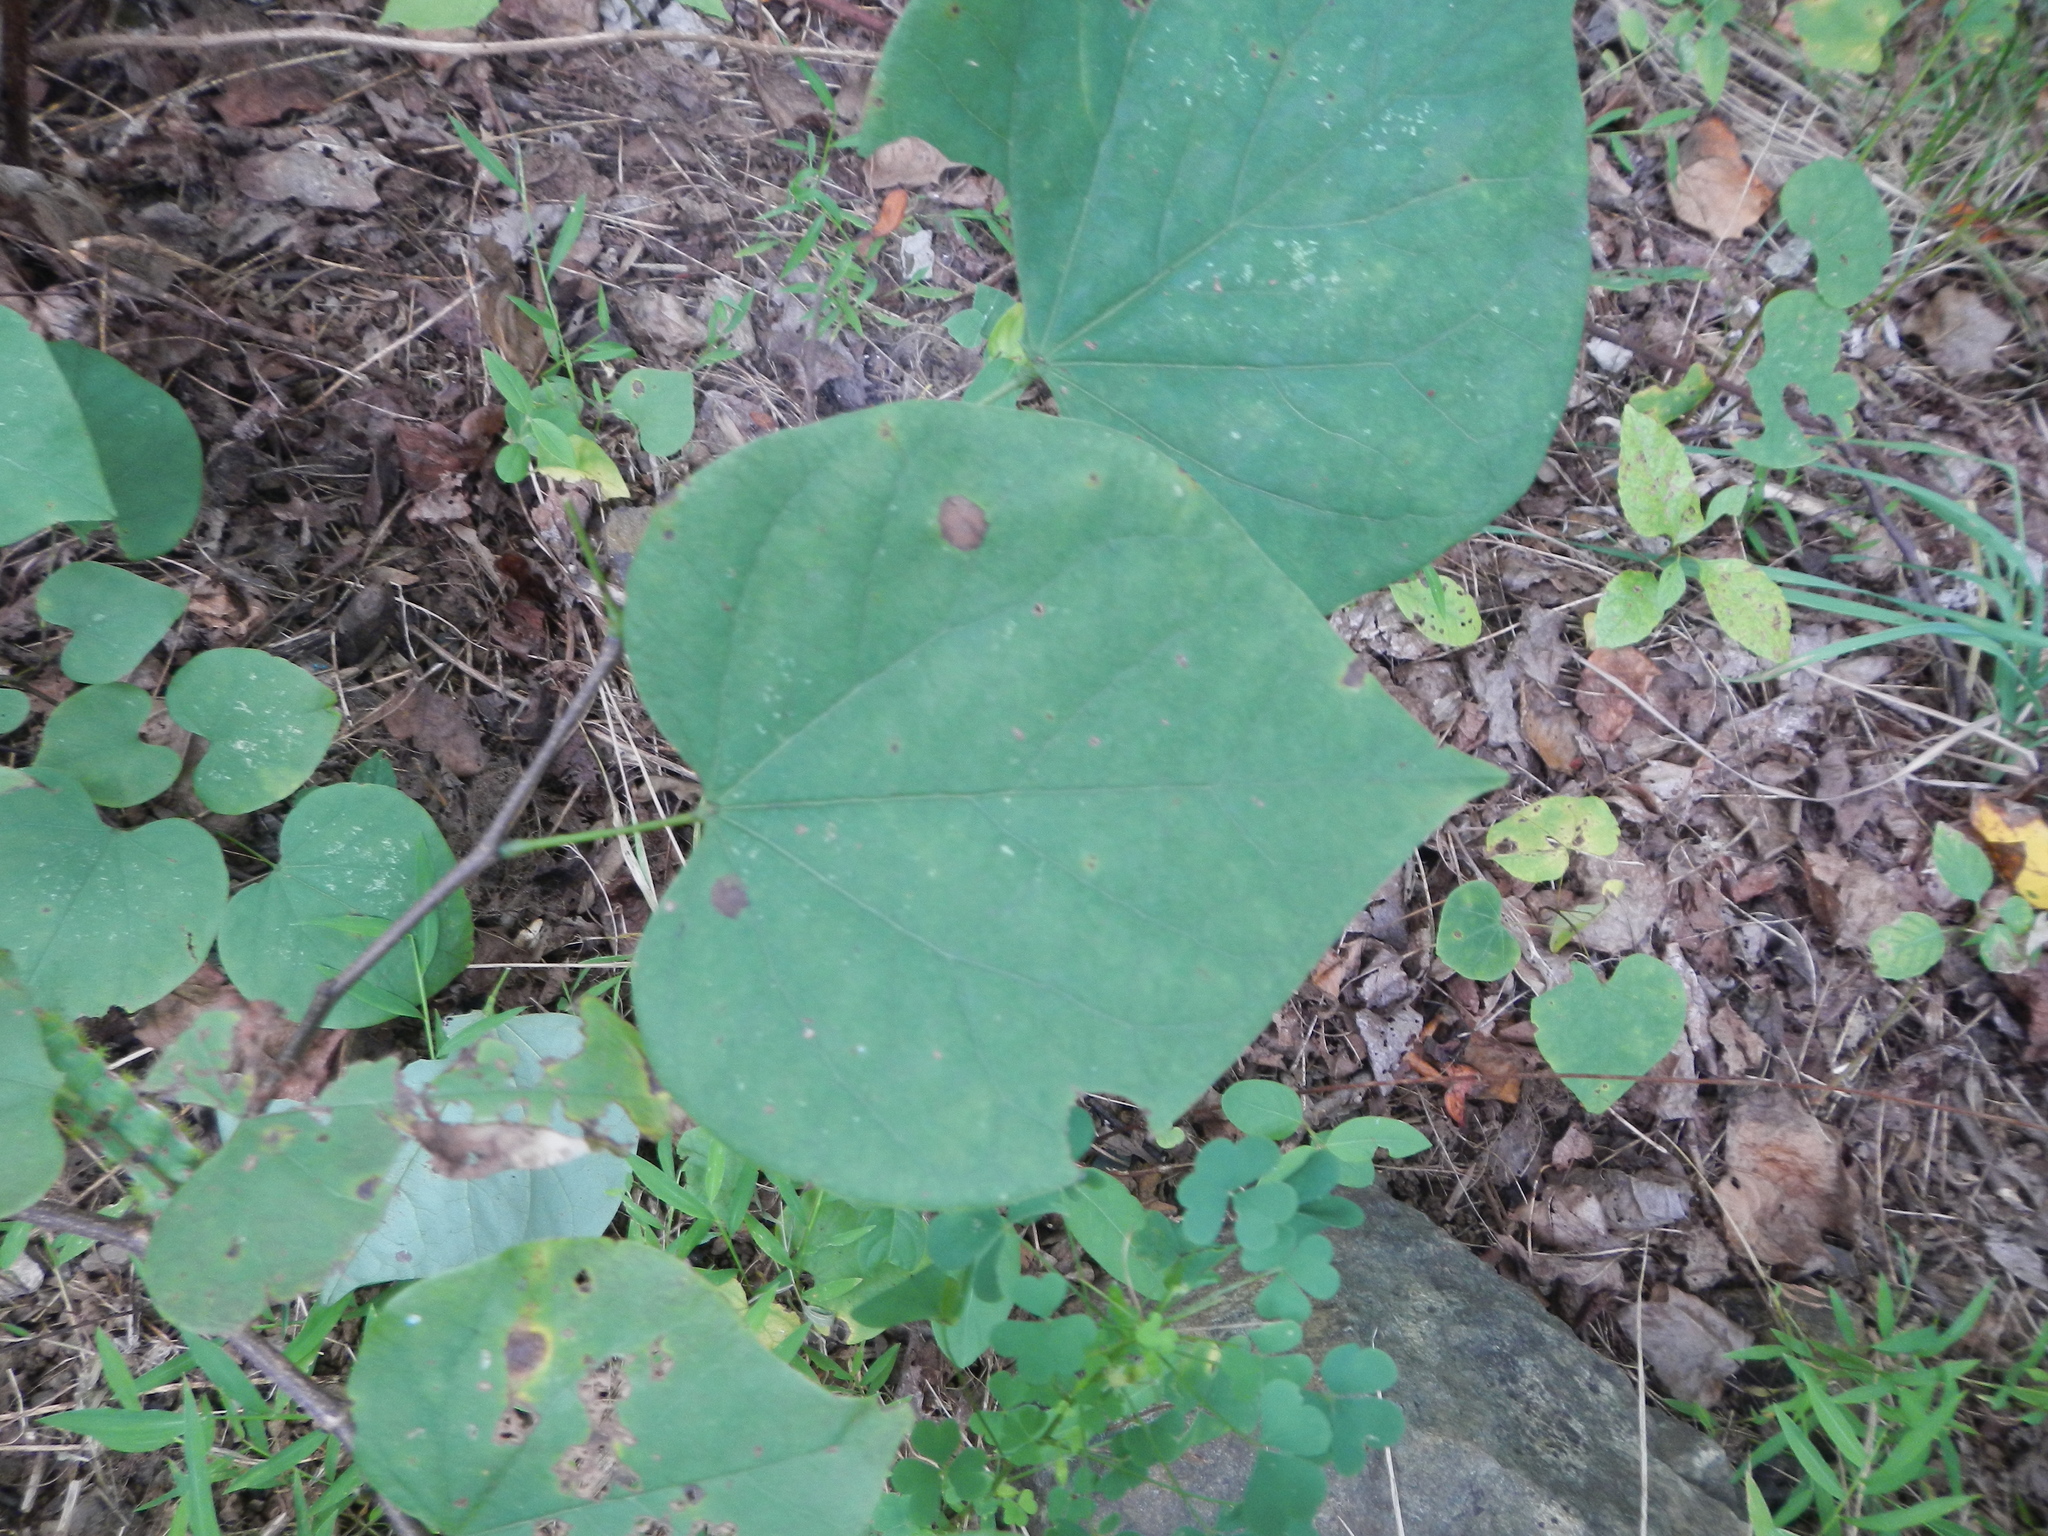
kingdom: Plantae
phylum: Tracheophyta
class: Magnoliopsida
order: Fabales
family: Fabaceae
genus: Cercis
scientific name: Cercis canadensis
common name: Eastern redbud
